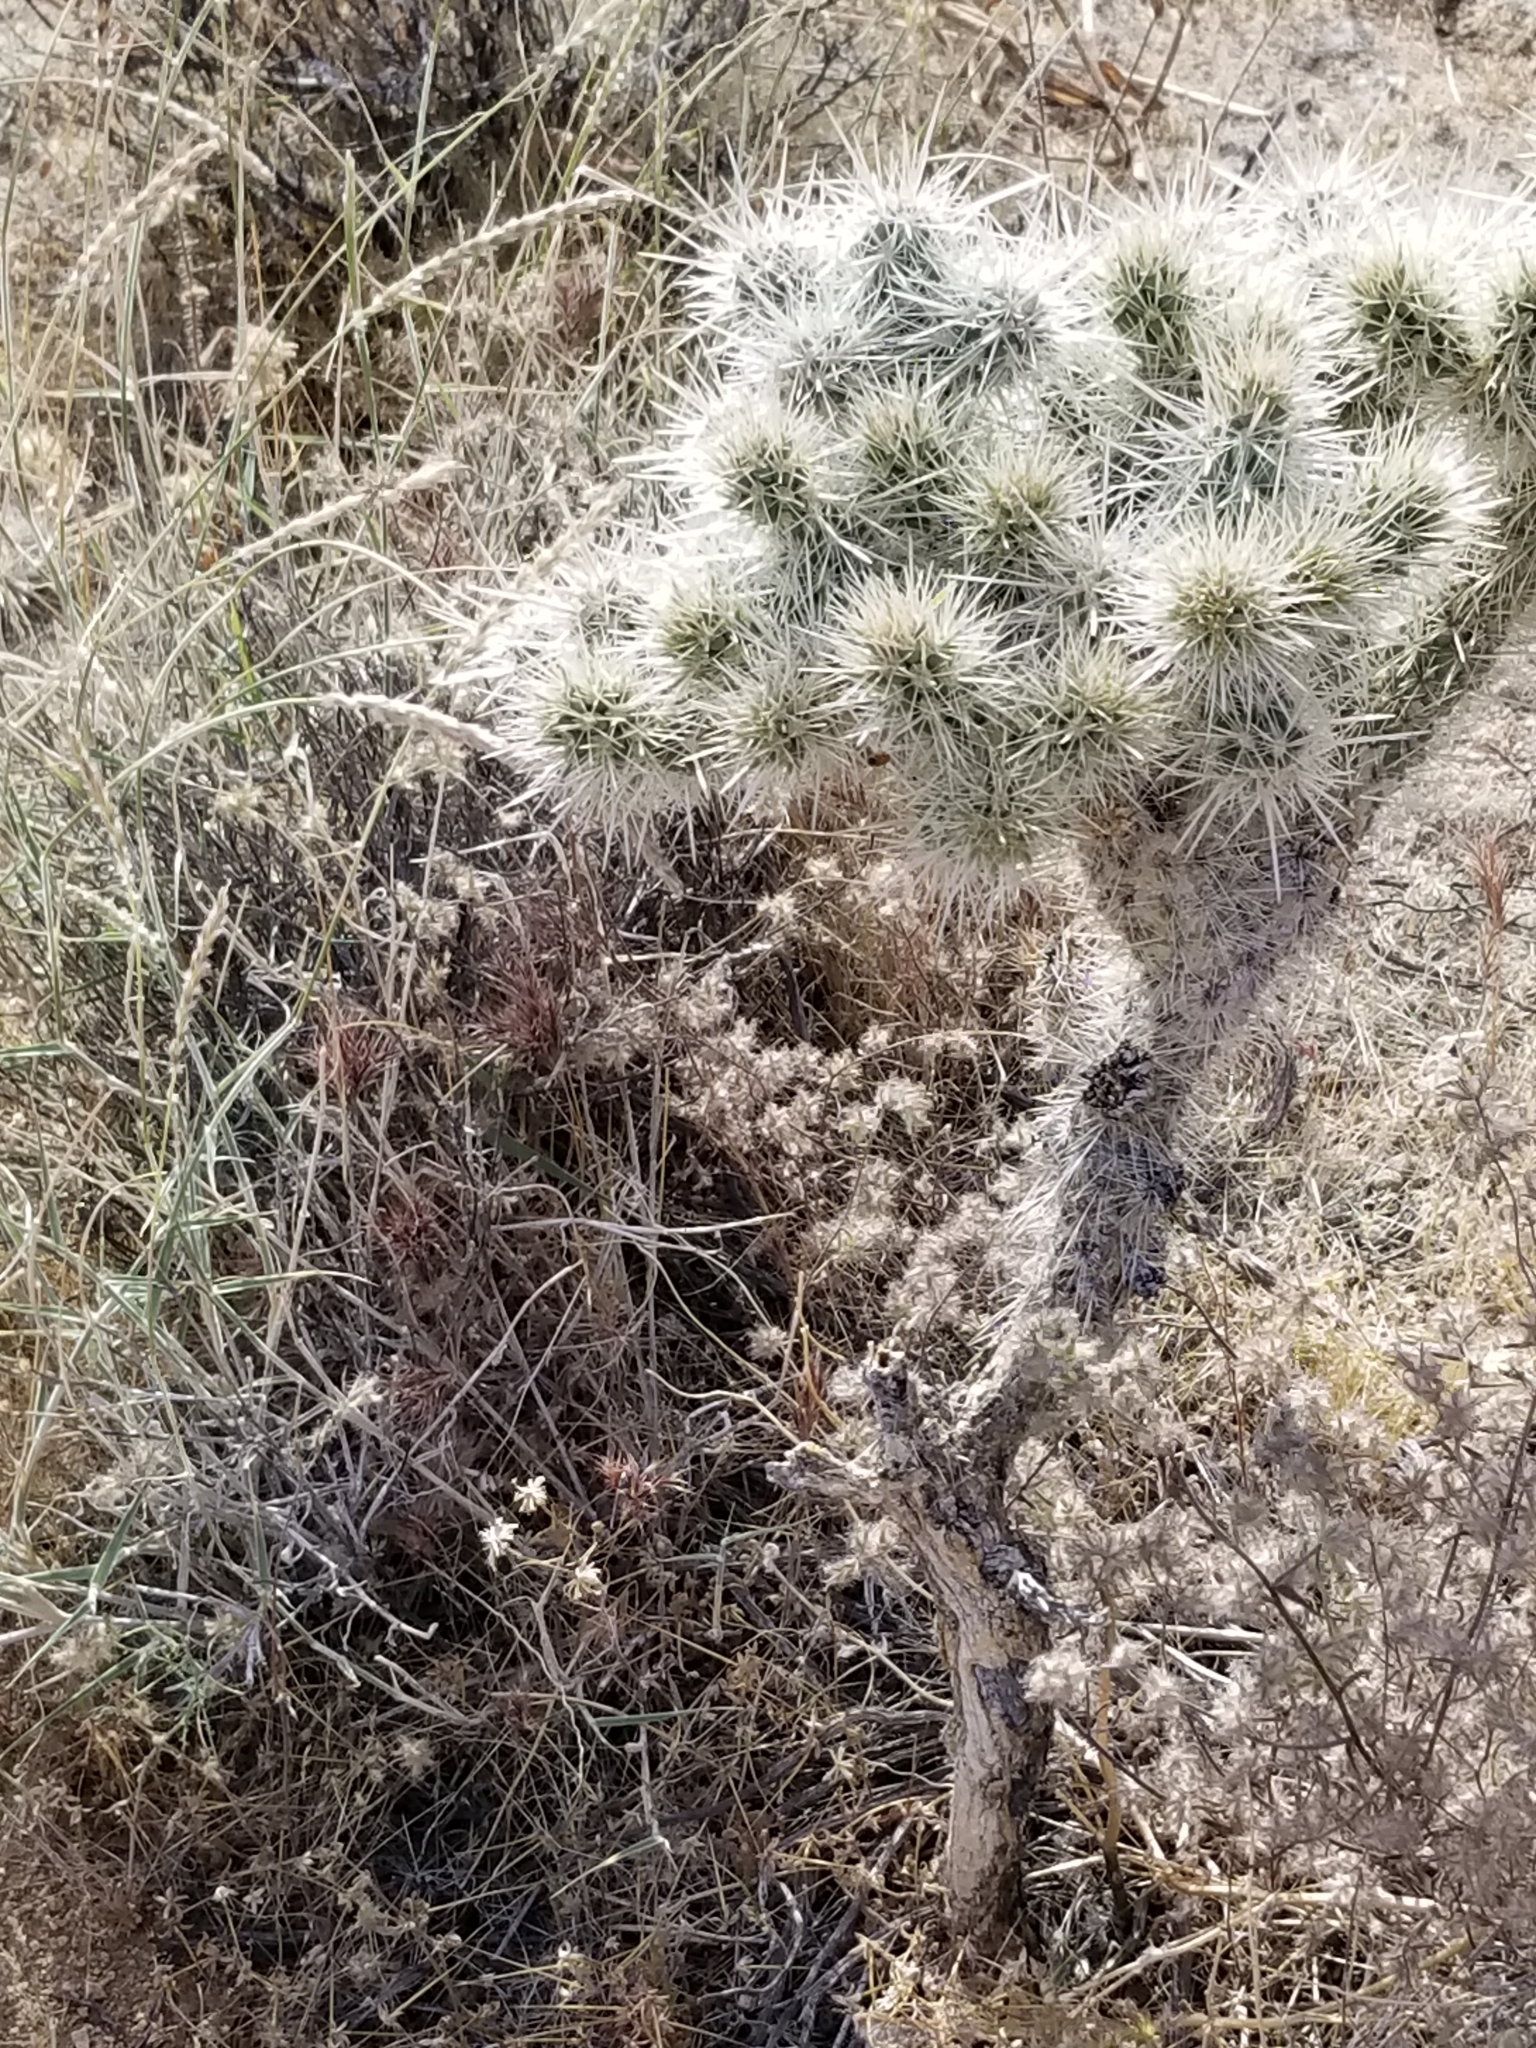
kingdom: Plantae
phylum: Tracheophyta
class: Magnoliopsida
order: Caryophyllales
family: Cactaceae
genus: Cylindropuntia
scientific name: Cylindropuntia echinocarpa
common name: Ground cholla
